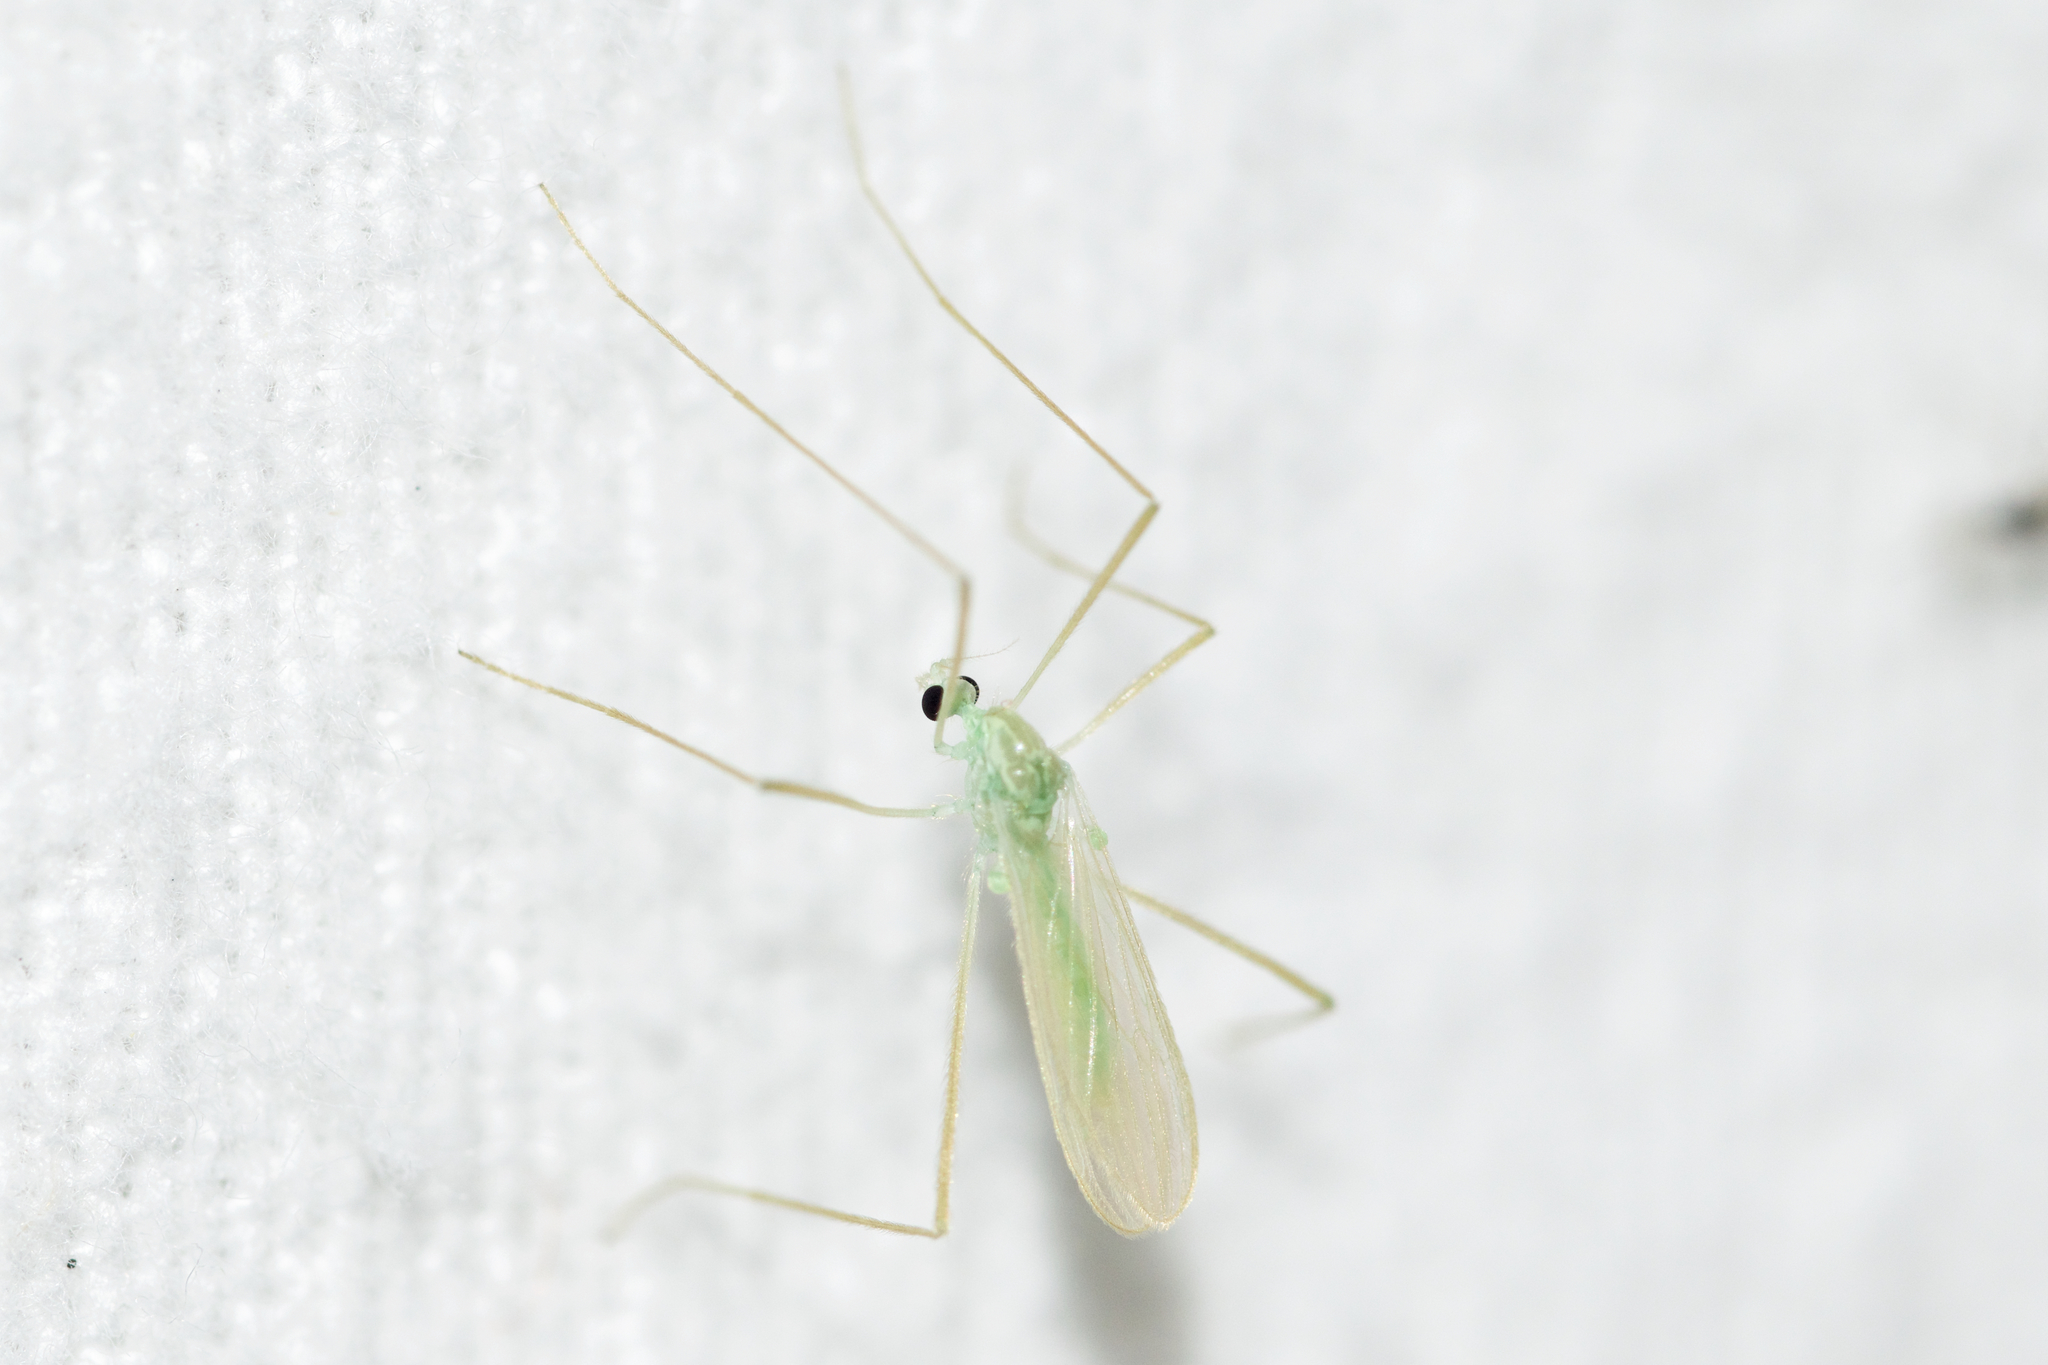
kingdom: Animalia
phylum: Arthropoda
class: Insecta
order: Diptera
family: Limoniidae
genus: Erioptera
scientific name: Erioptera
